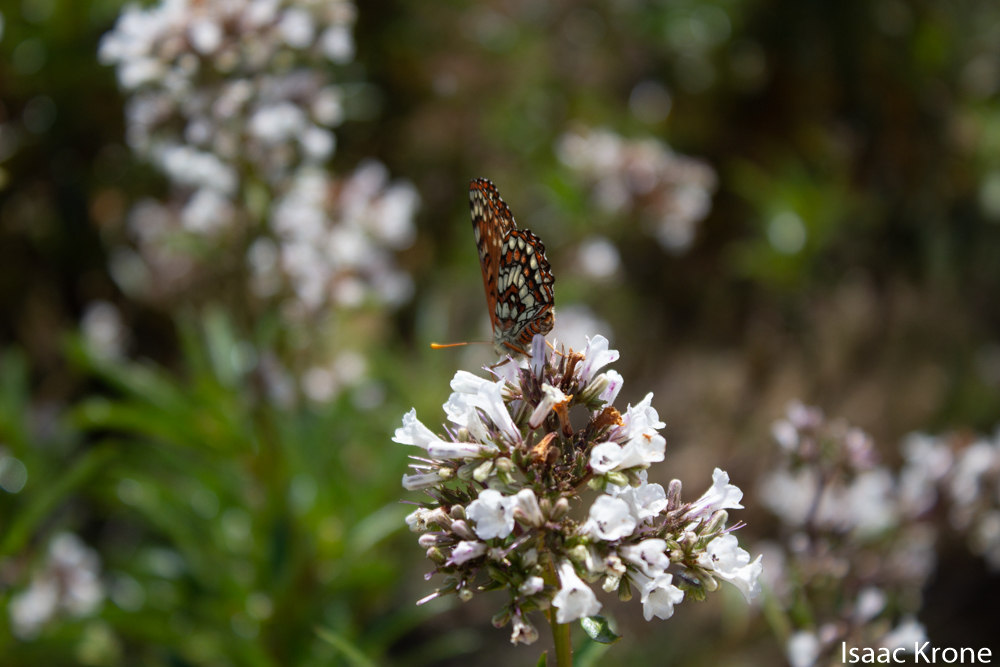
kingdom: Animalia
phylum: Arthropoda
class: Insecta
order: Lepidoptera
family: Nymphalidae
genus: Occidryas
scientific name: Occidryas chalcedona
